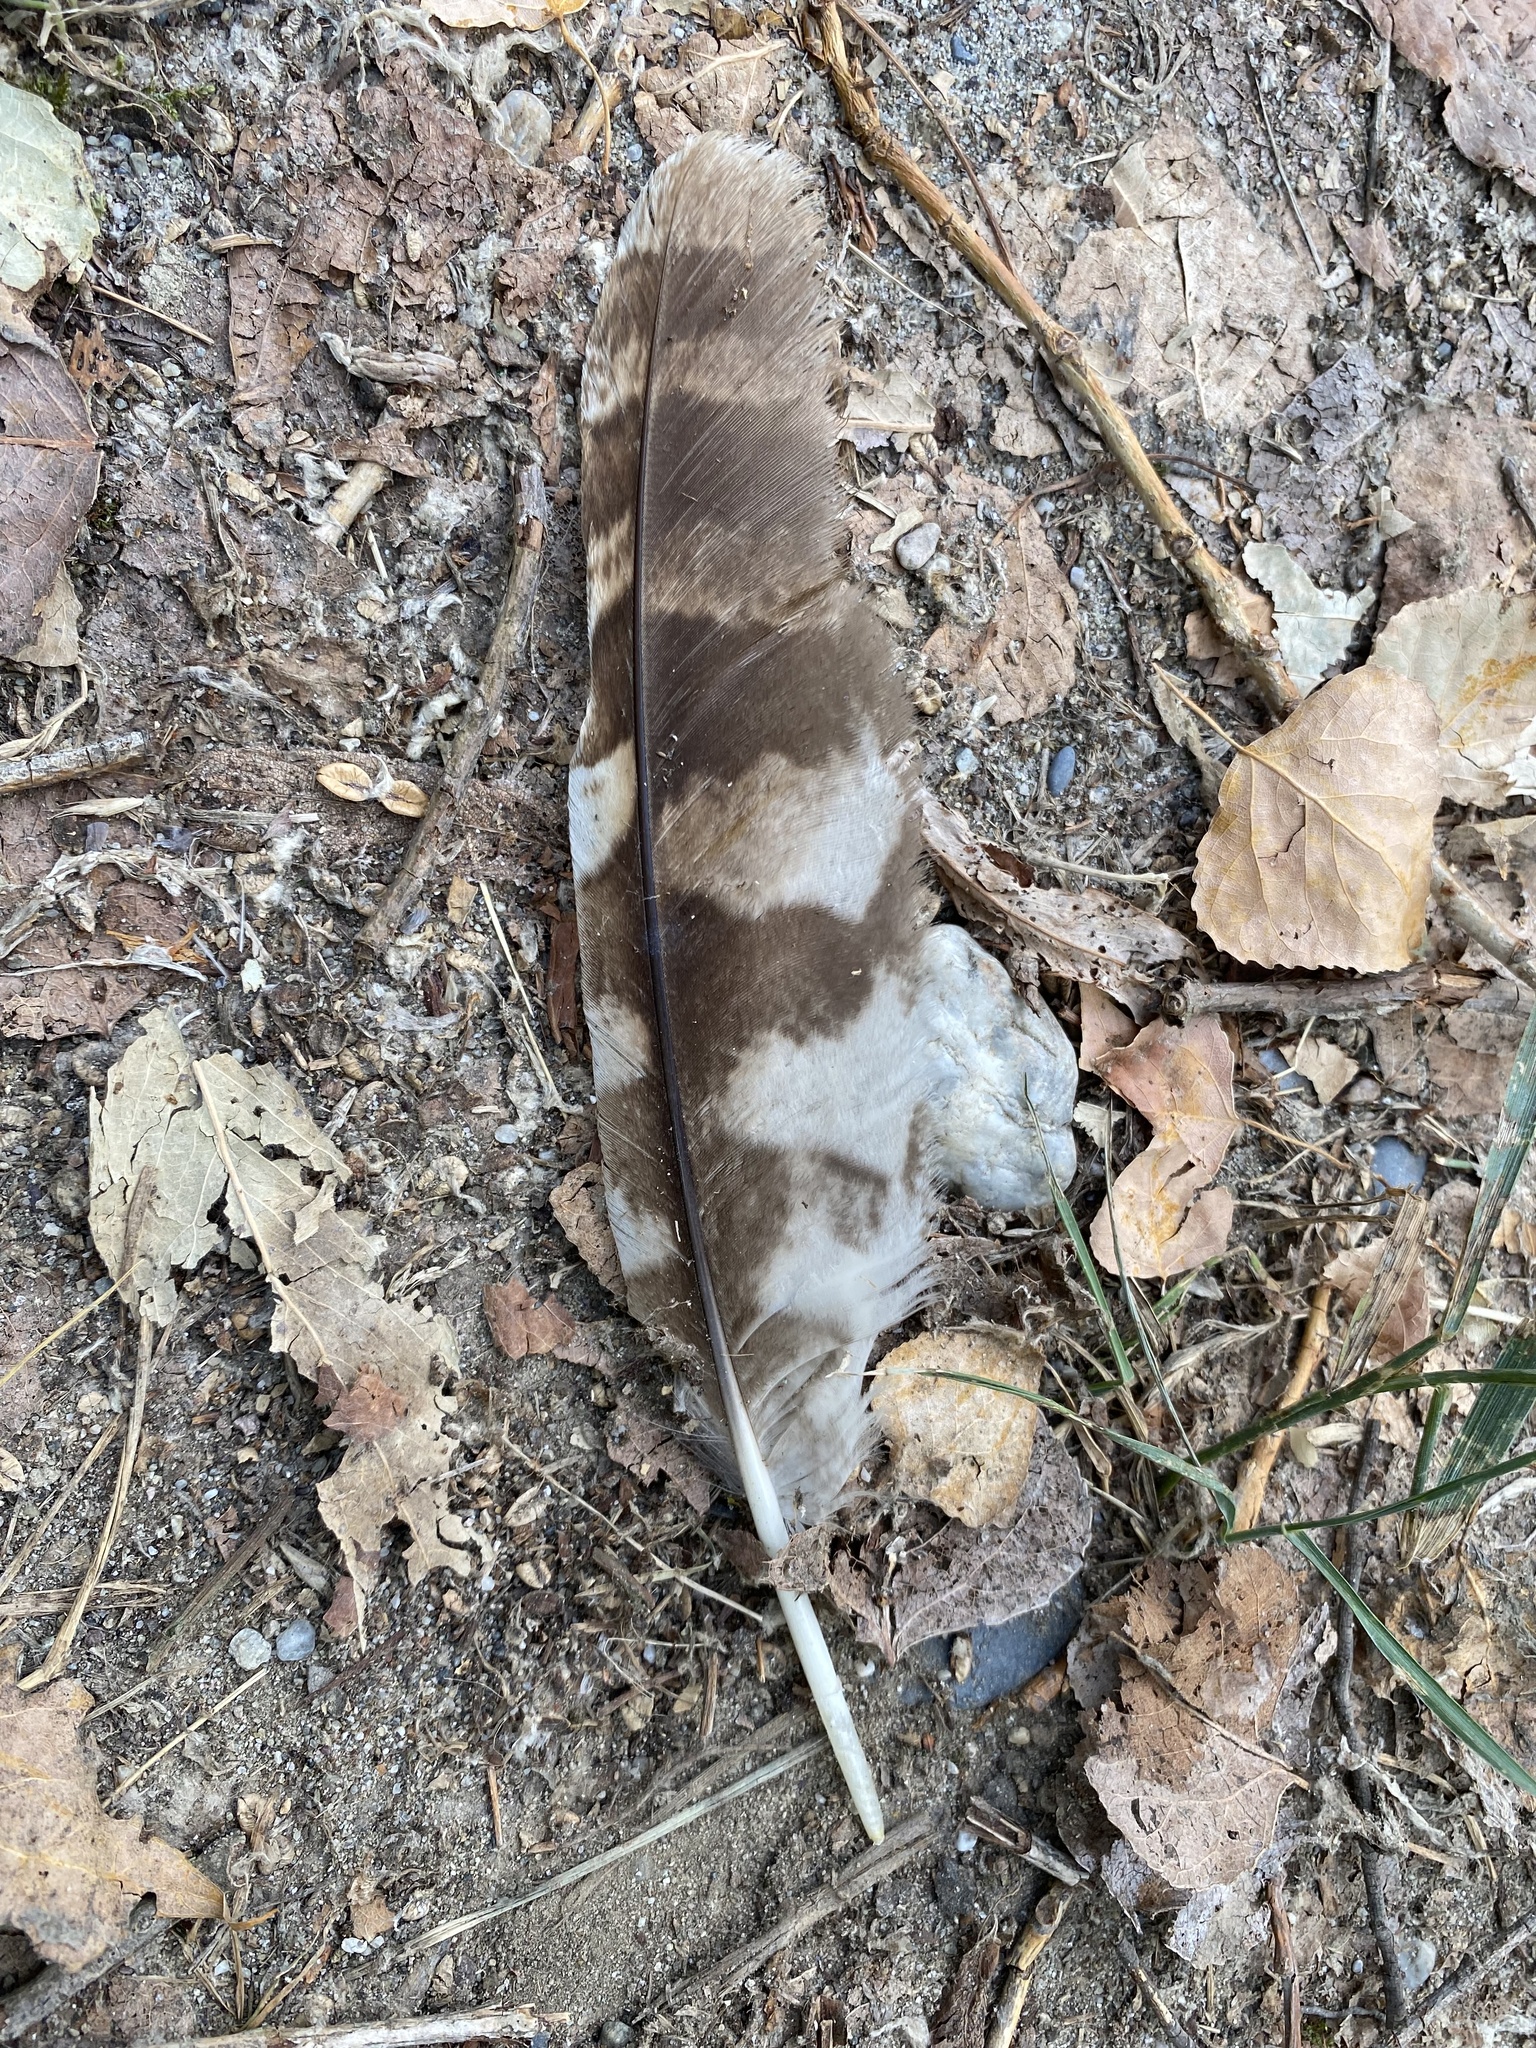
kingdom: Animalia
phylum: Chordata
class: Aves
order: Strigiformes
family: Strigidae
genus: Strix
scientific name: Strix aluco
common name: Tawny owl
